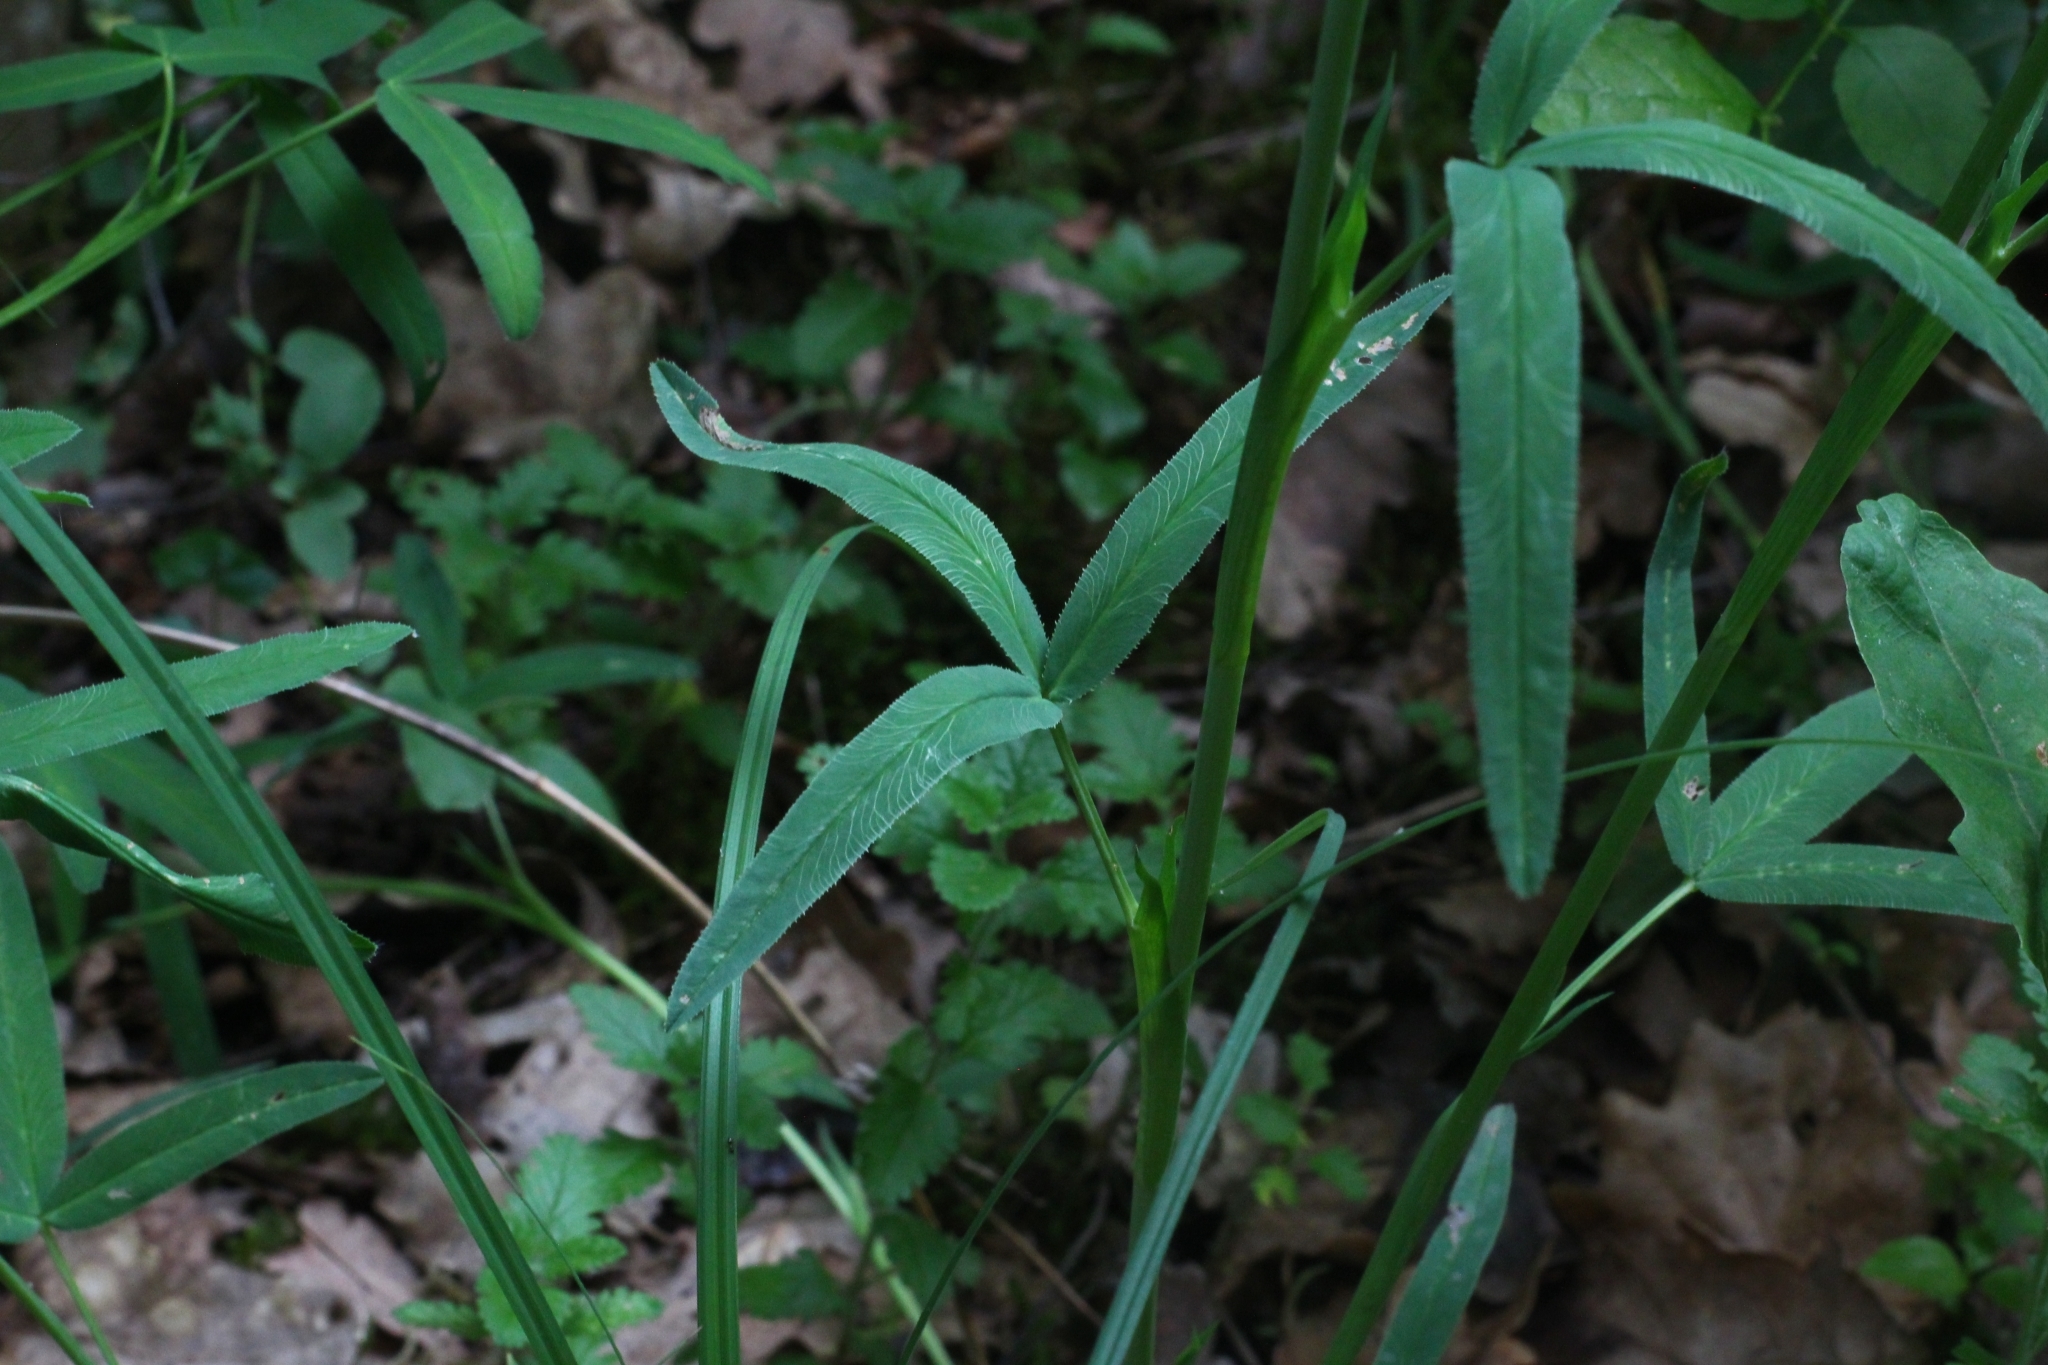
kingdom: Plantae
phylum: Tracheophyta
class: Magnoliopsida
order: Fabales
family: Fabaceae
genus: Trifolium
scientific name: Trifolium rubens
